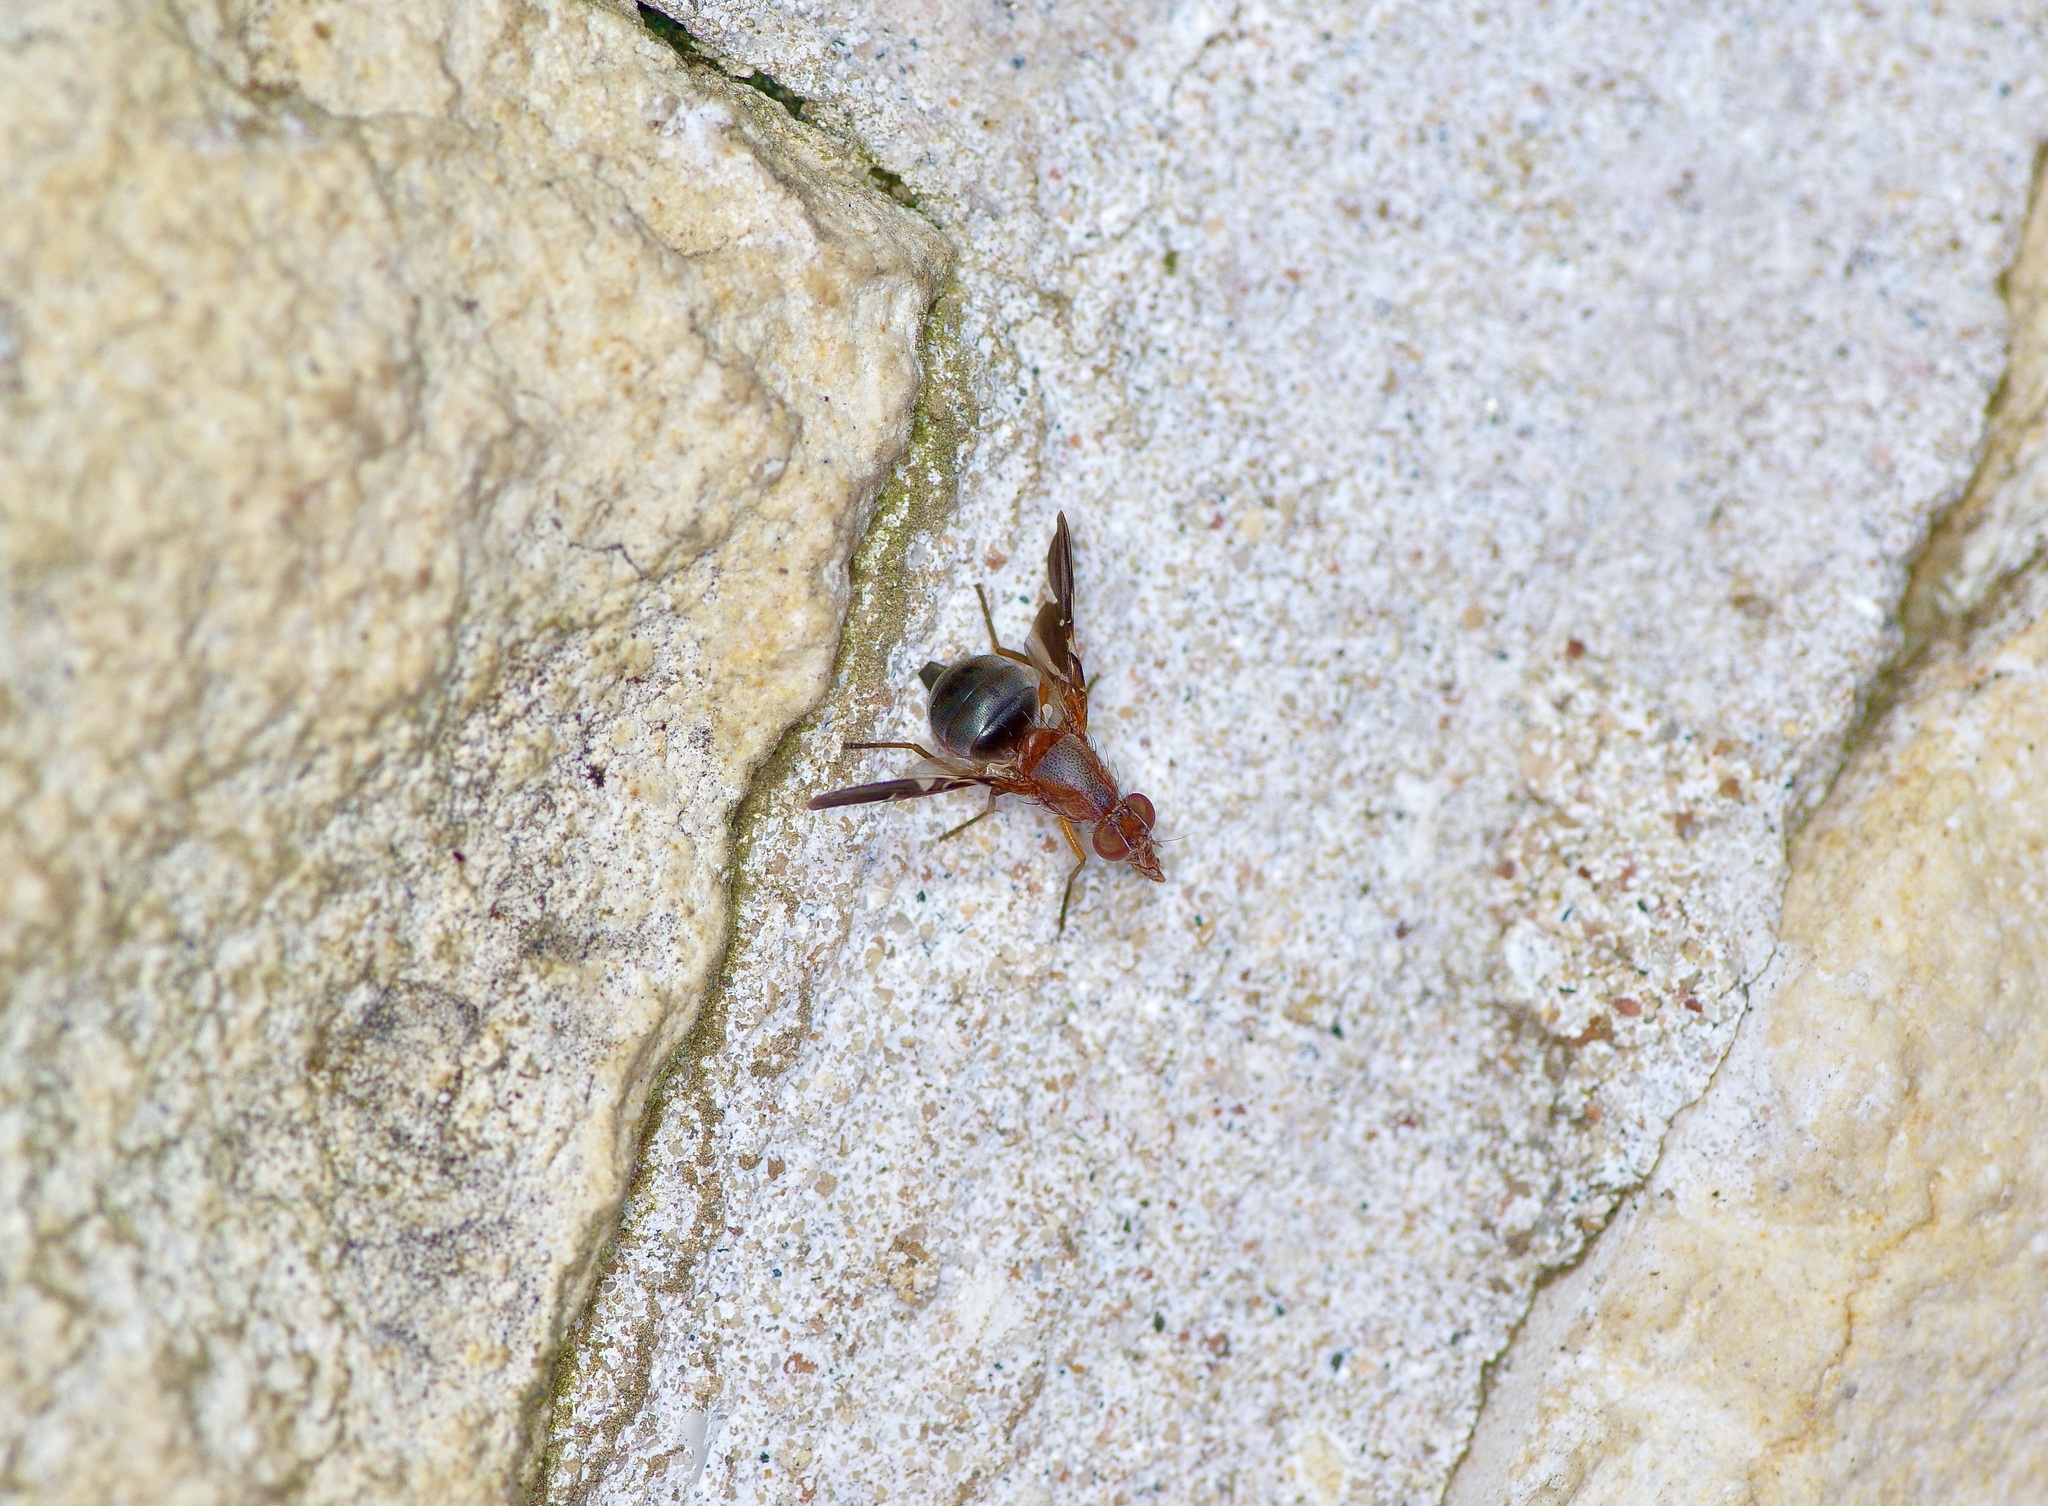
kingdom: Animalia
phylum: Arthropoda
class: Insecta
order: Diptera
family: Ulidiidae
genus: Delphinia
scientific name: Delphinia picta
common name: Common picture-winged fly
